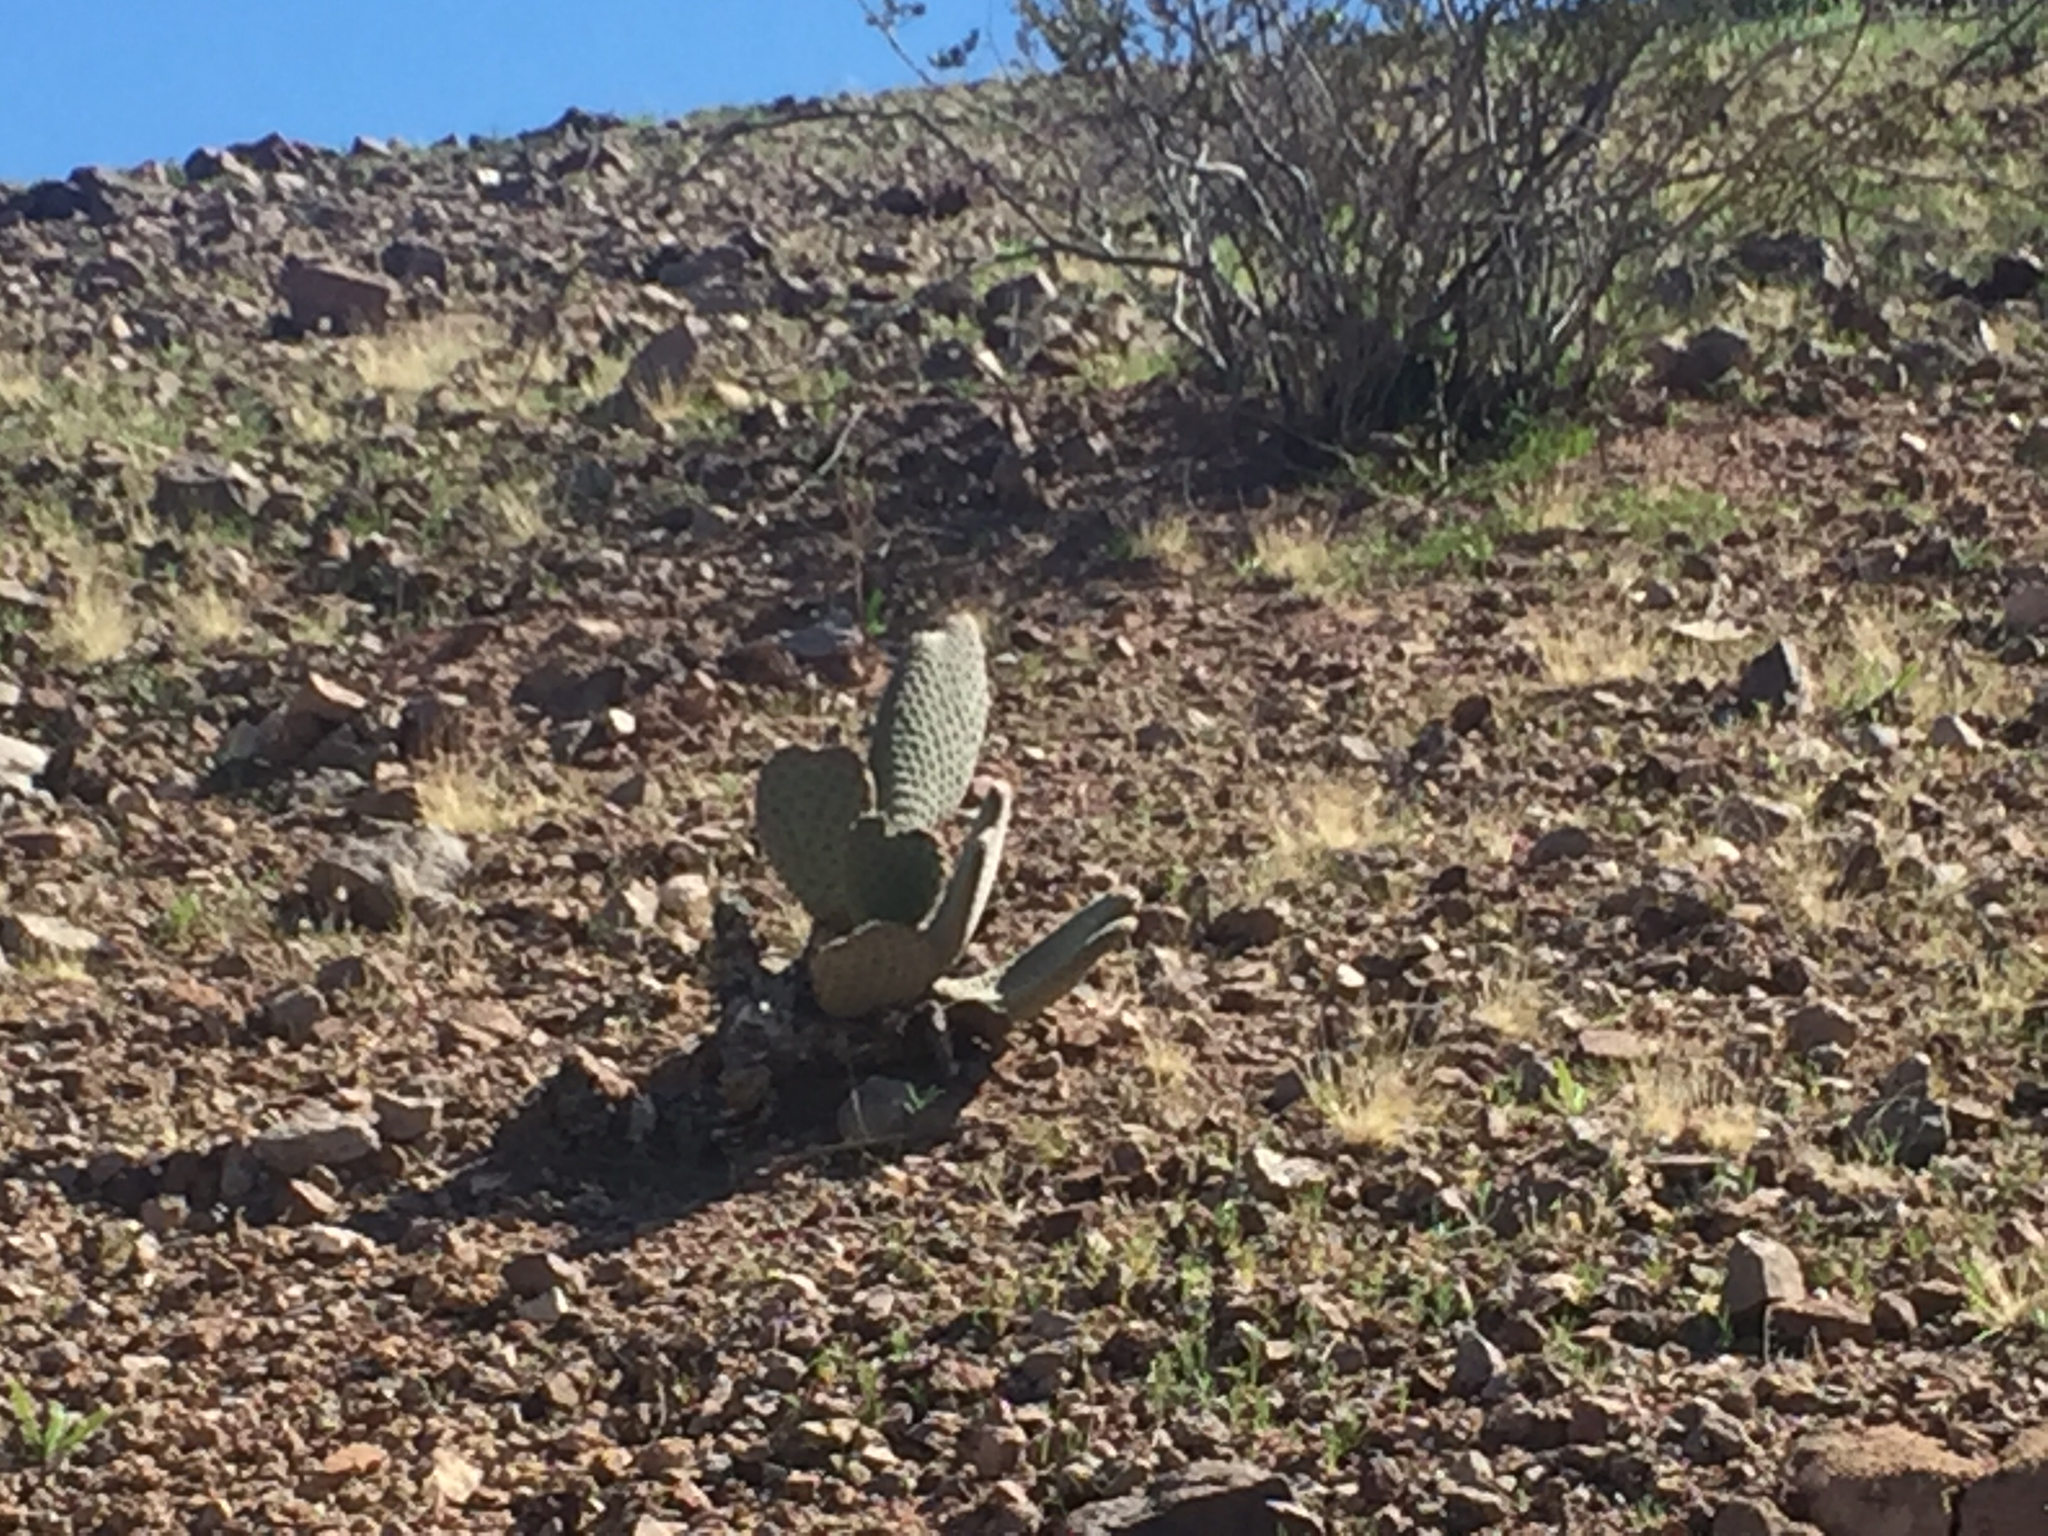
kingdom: Plantae
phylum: Tracheophyta
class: Magnoliopsida
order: Caryophyllales
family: Cactaceae
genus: Opuntia
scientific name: Opuntia basilaris
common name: Beavertail prickly-pear
